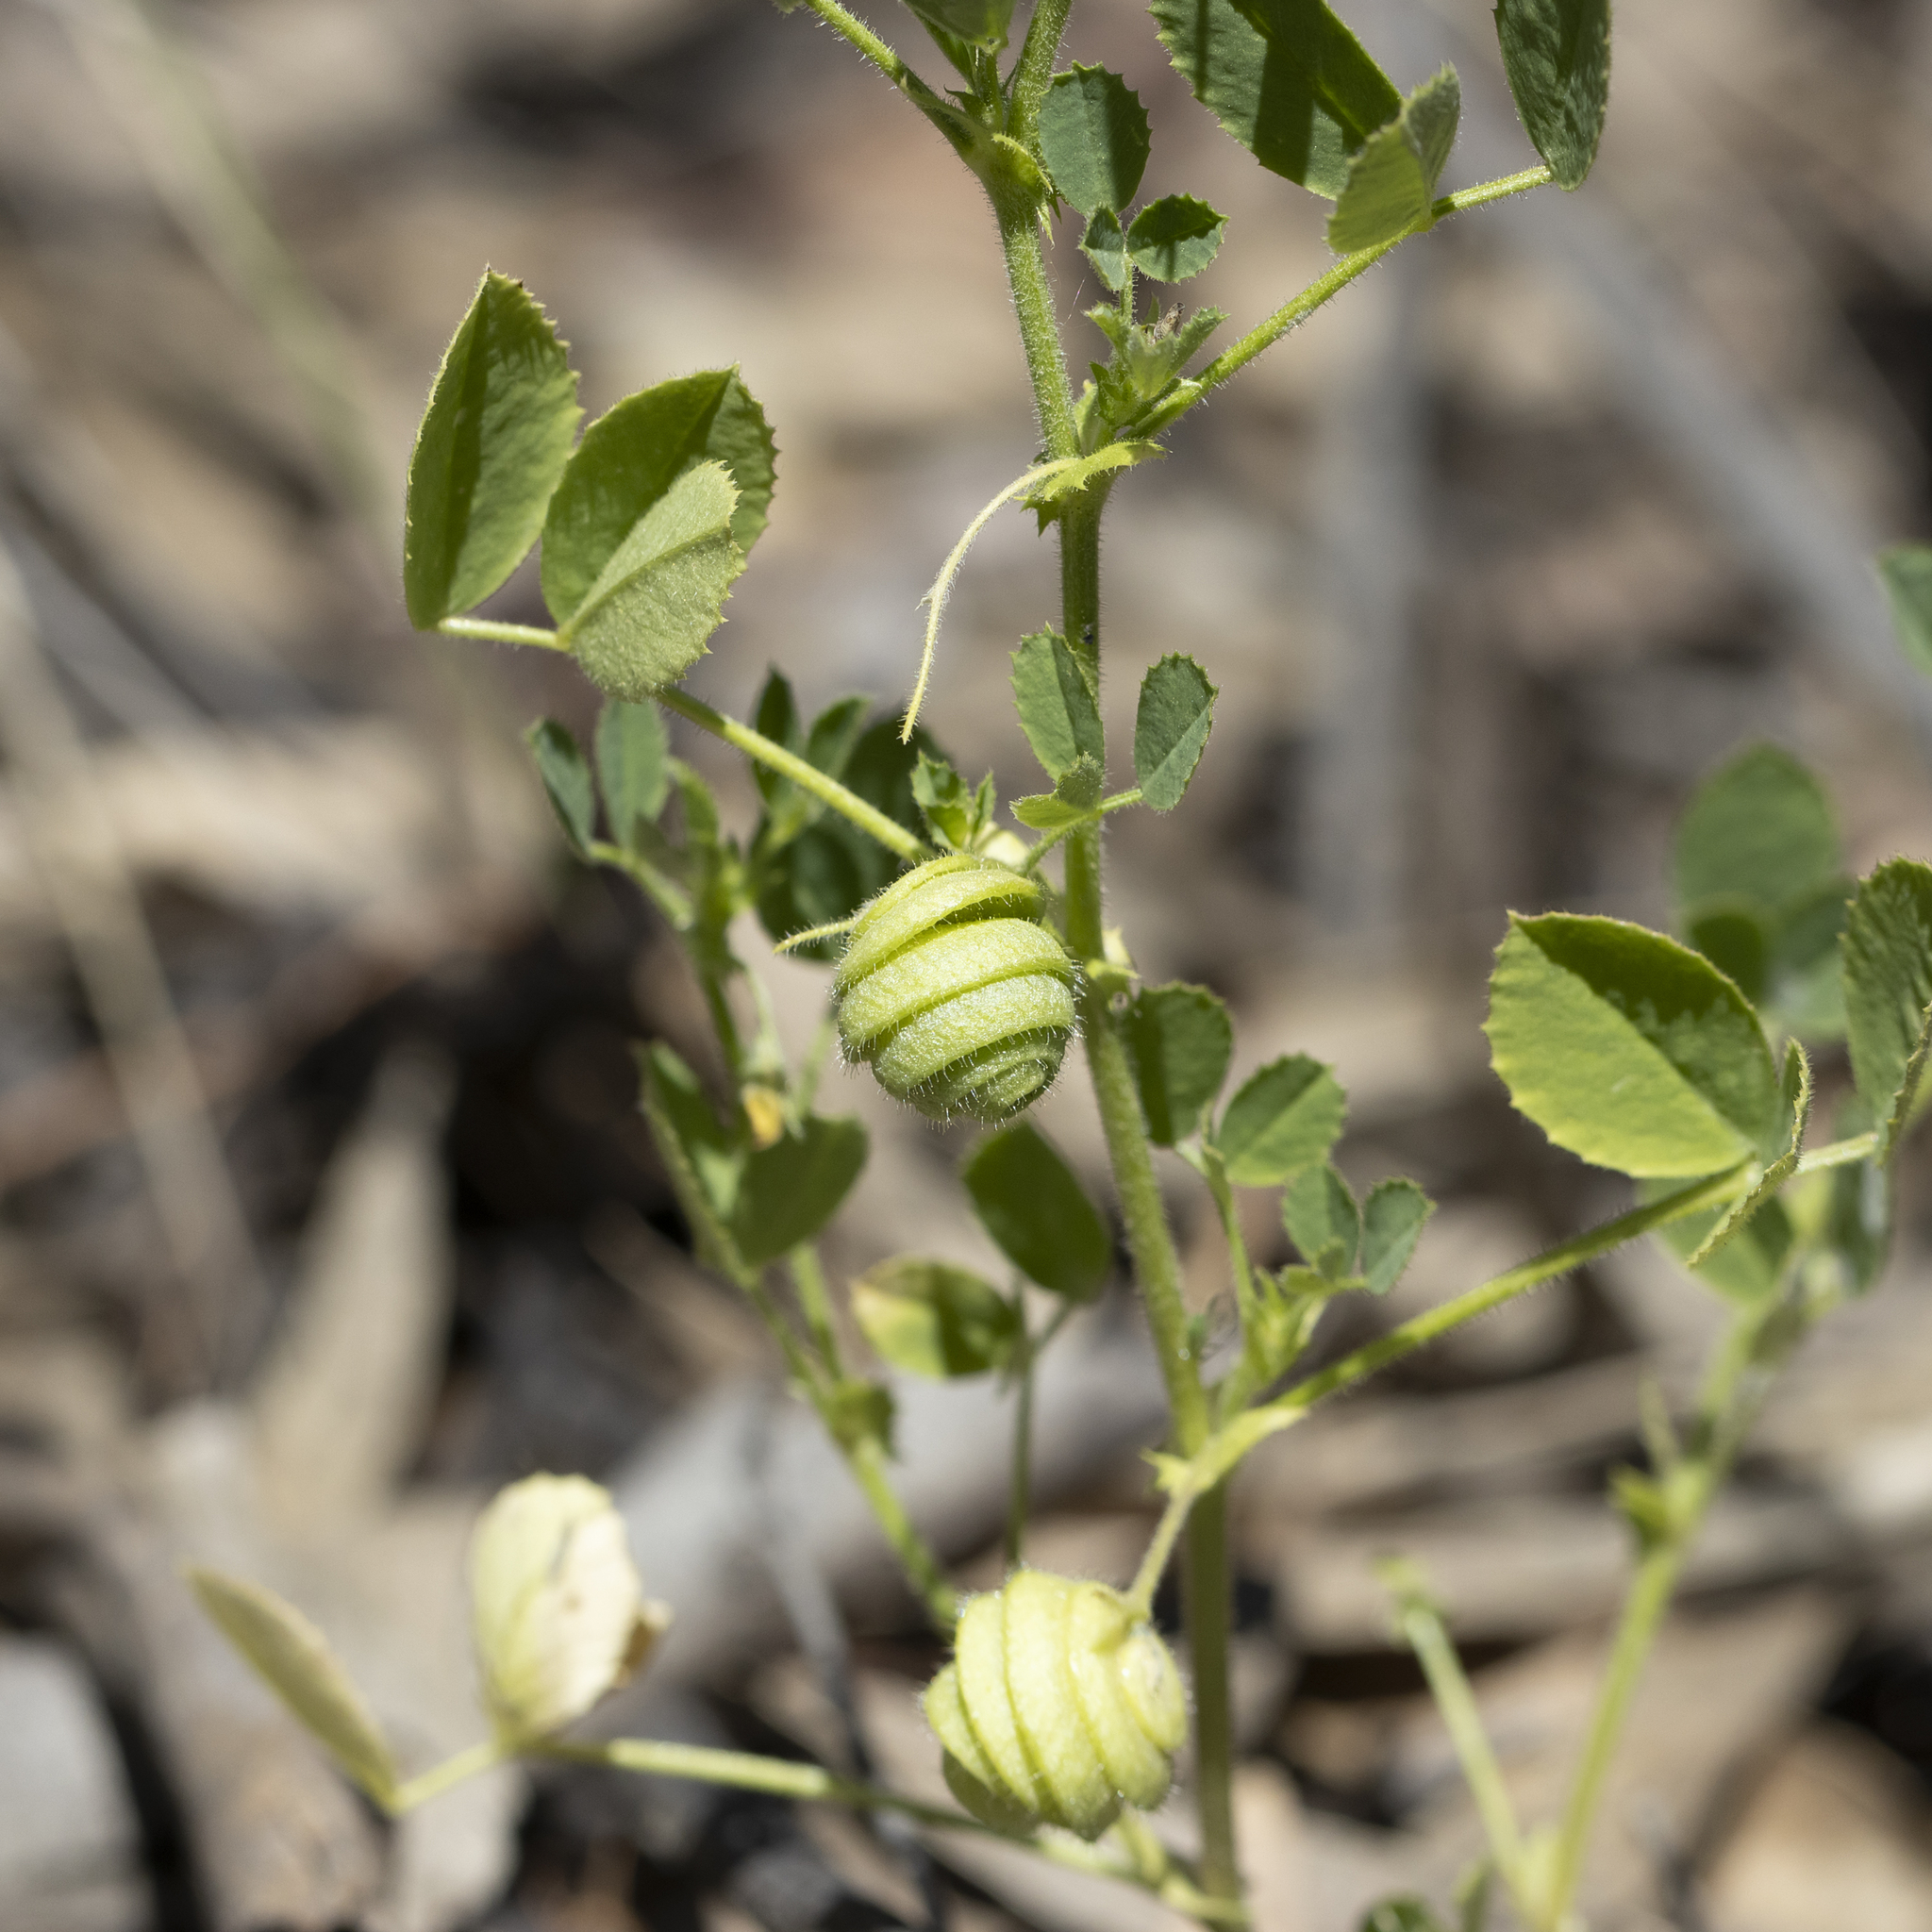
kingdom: Plantae
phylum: Tracheophyta
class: Magnoliopsida
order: Fabales
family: Fabaceae
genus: Medicago
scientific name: Medicago scutellata
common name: Snail medick
